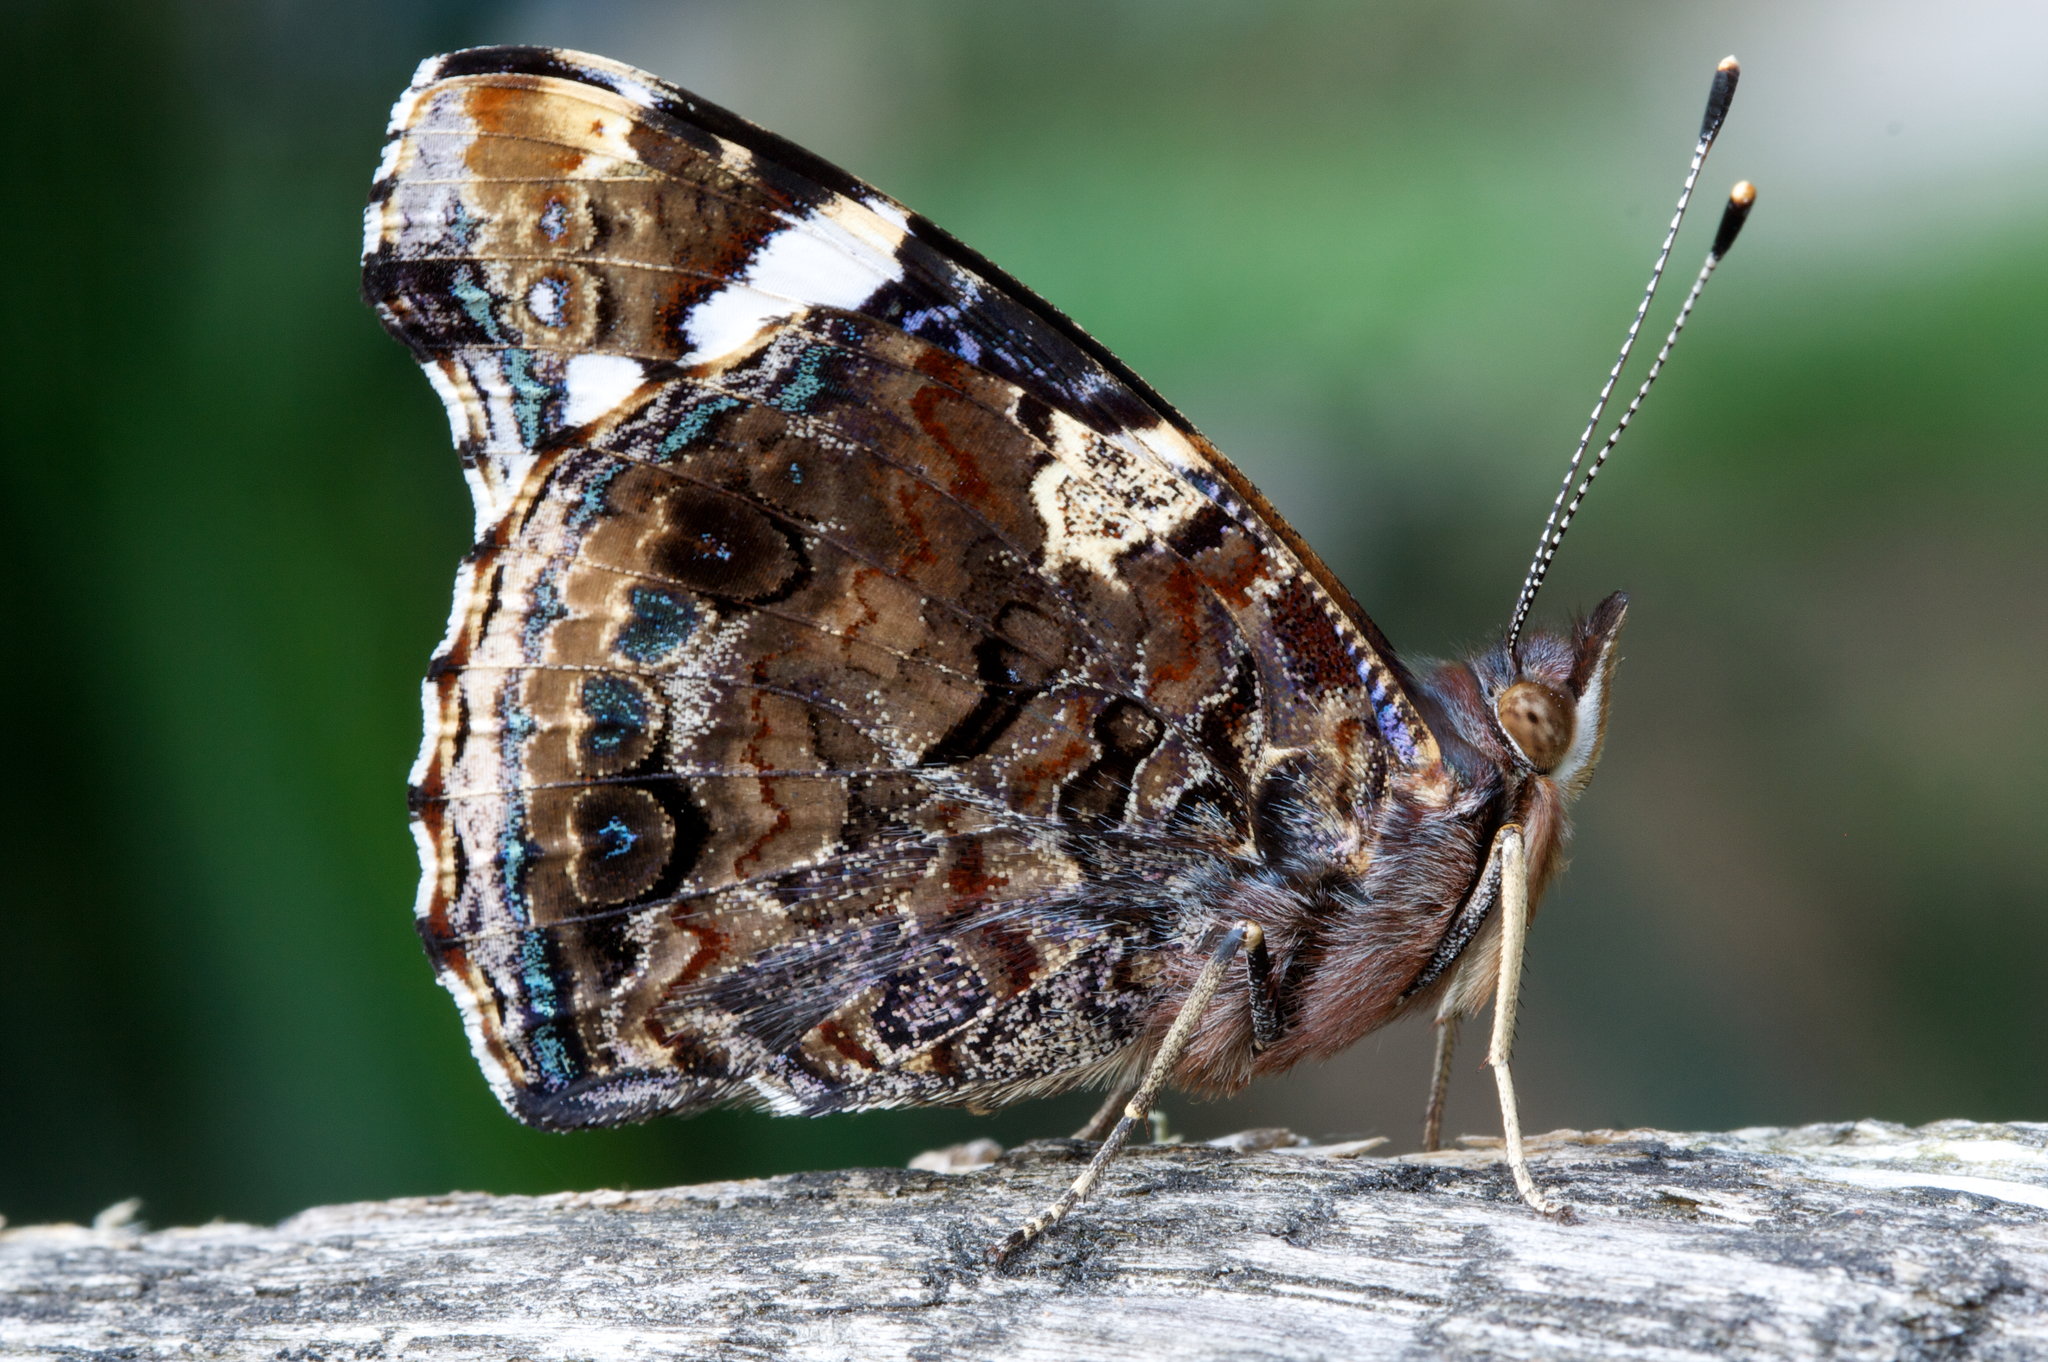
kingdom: Animalia
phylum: Arthropoda
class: Insecta
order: Lepidoptera
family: Nymphalidae
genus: Vanessa
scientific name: Vanessa atalanta
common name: Red admiral
